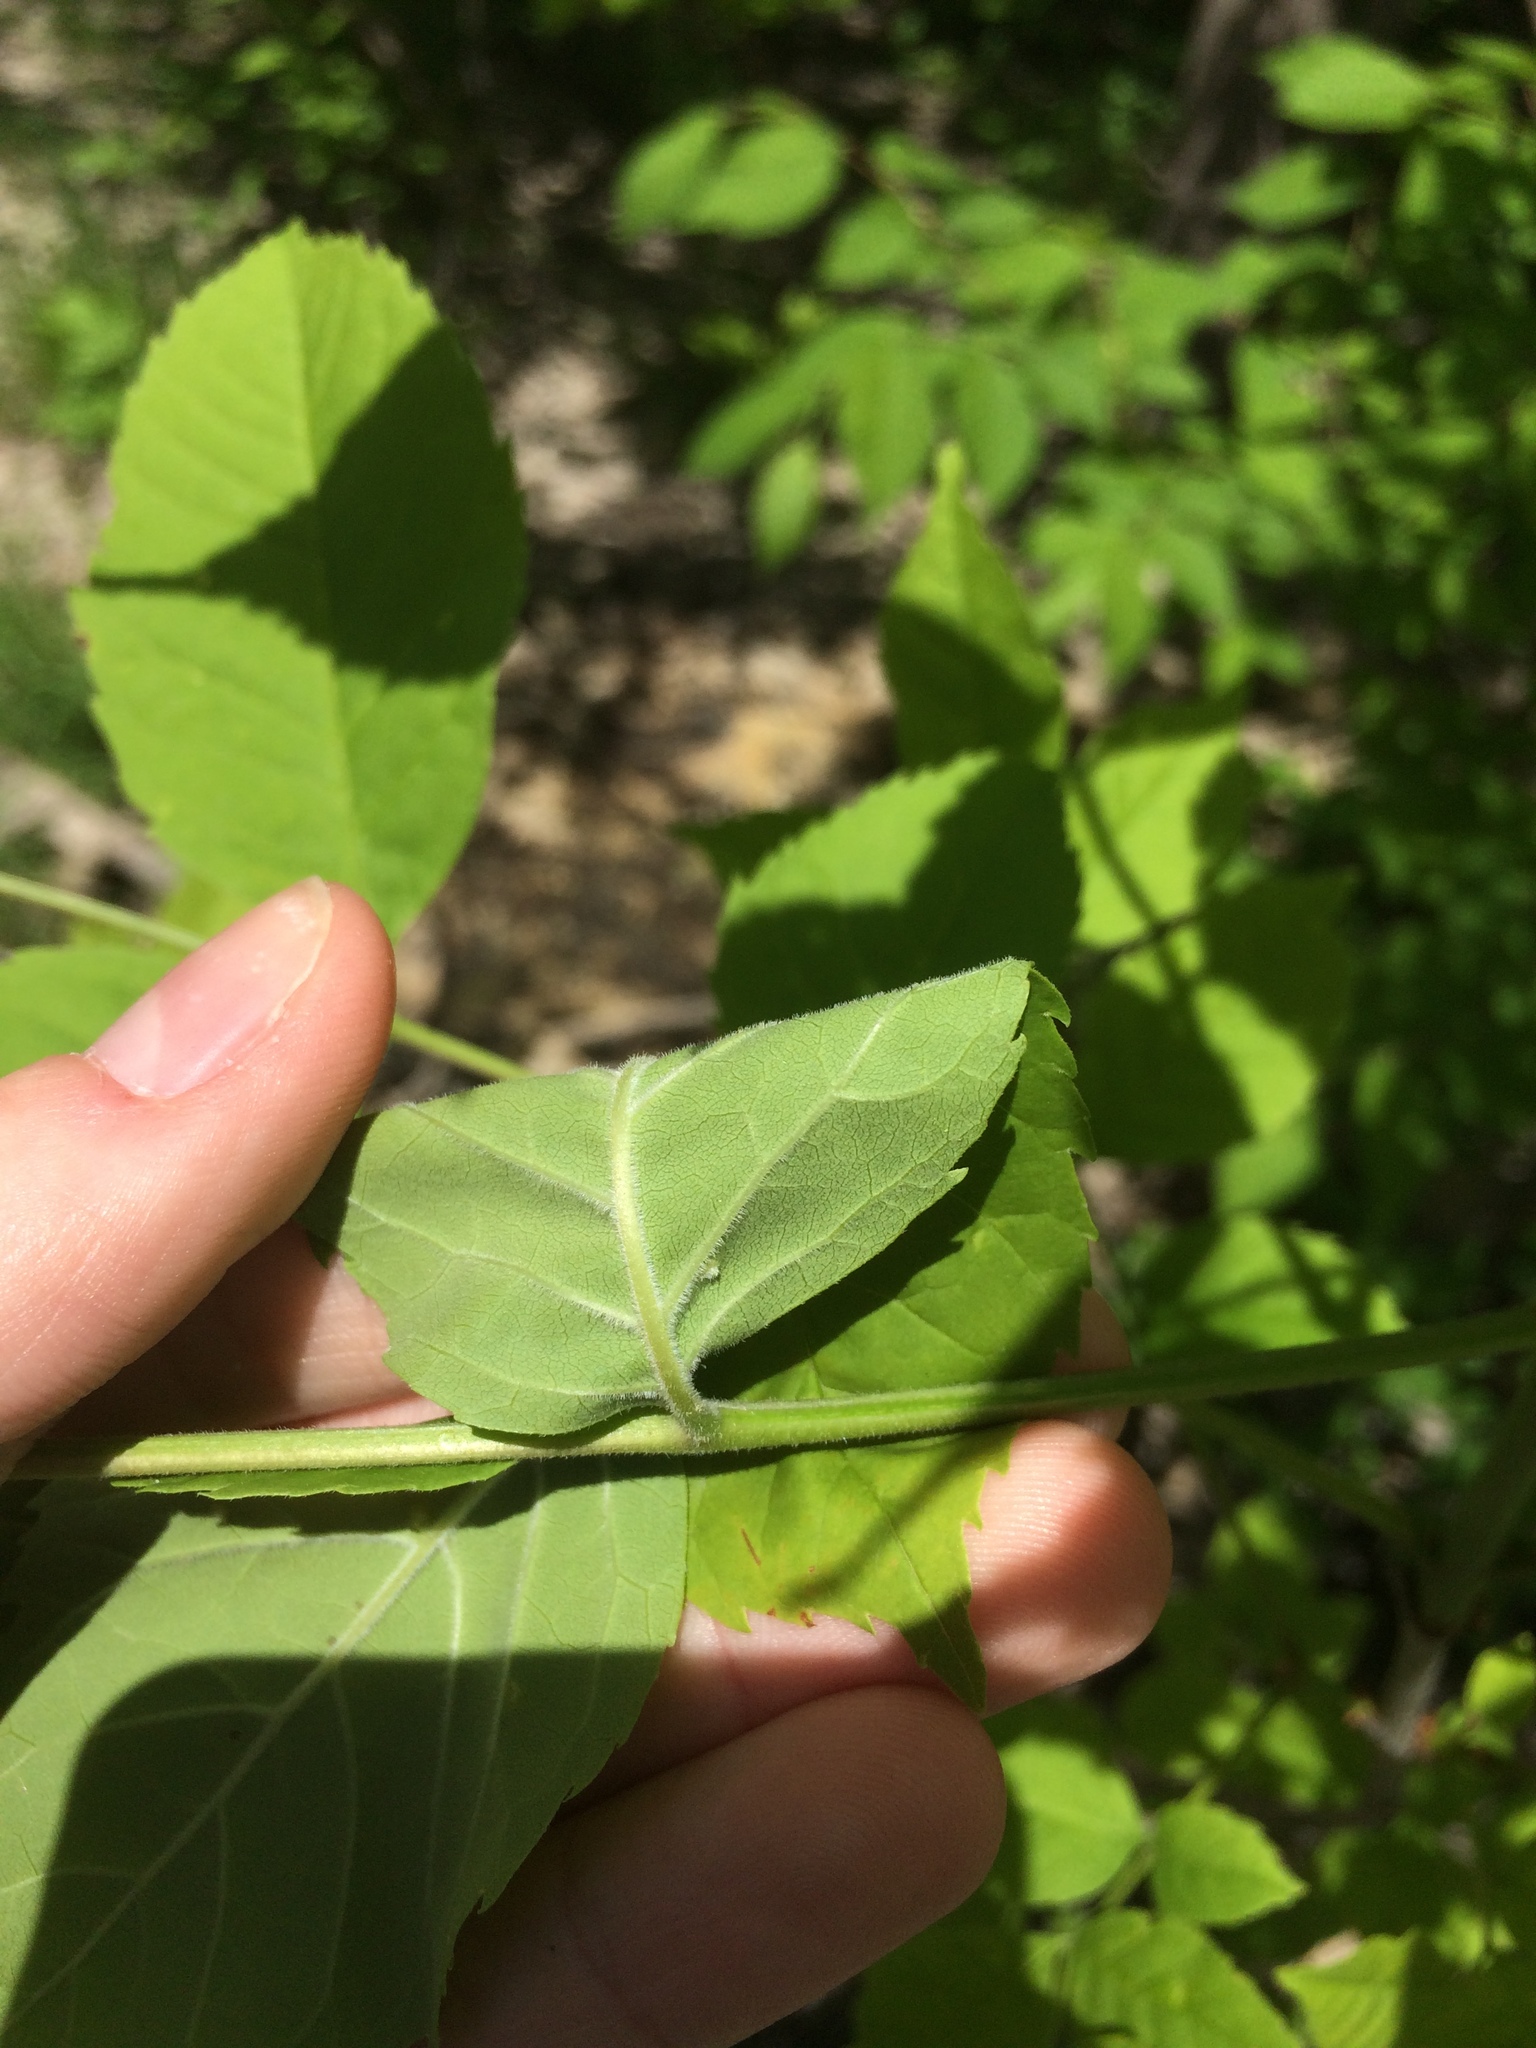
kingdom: Plantae
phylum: Tracheophyta
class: Magnoliopsida
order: Lamiales
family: Oleaceae
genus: Fraxinus
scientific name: Fraxinus pennsylvanica
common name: Green ash
